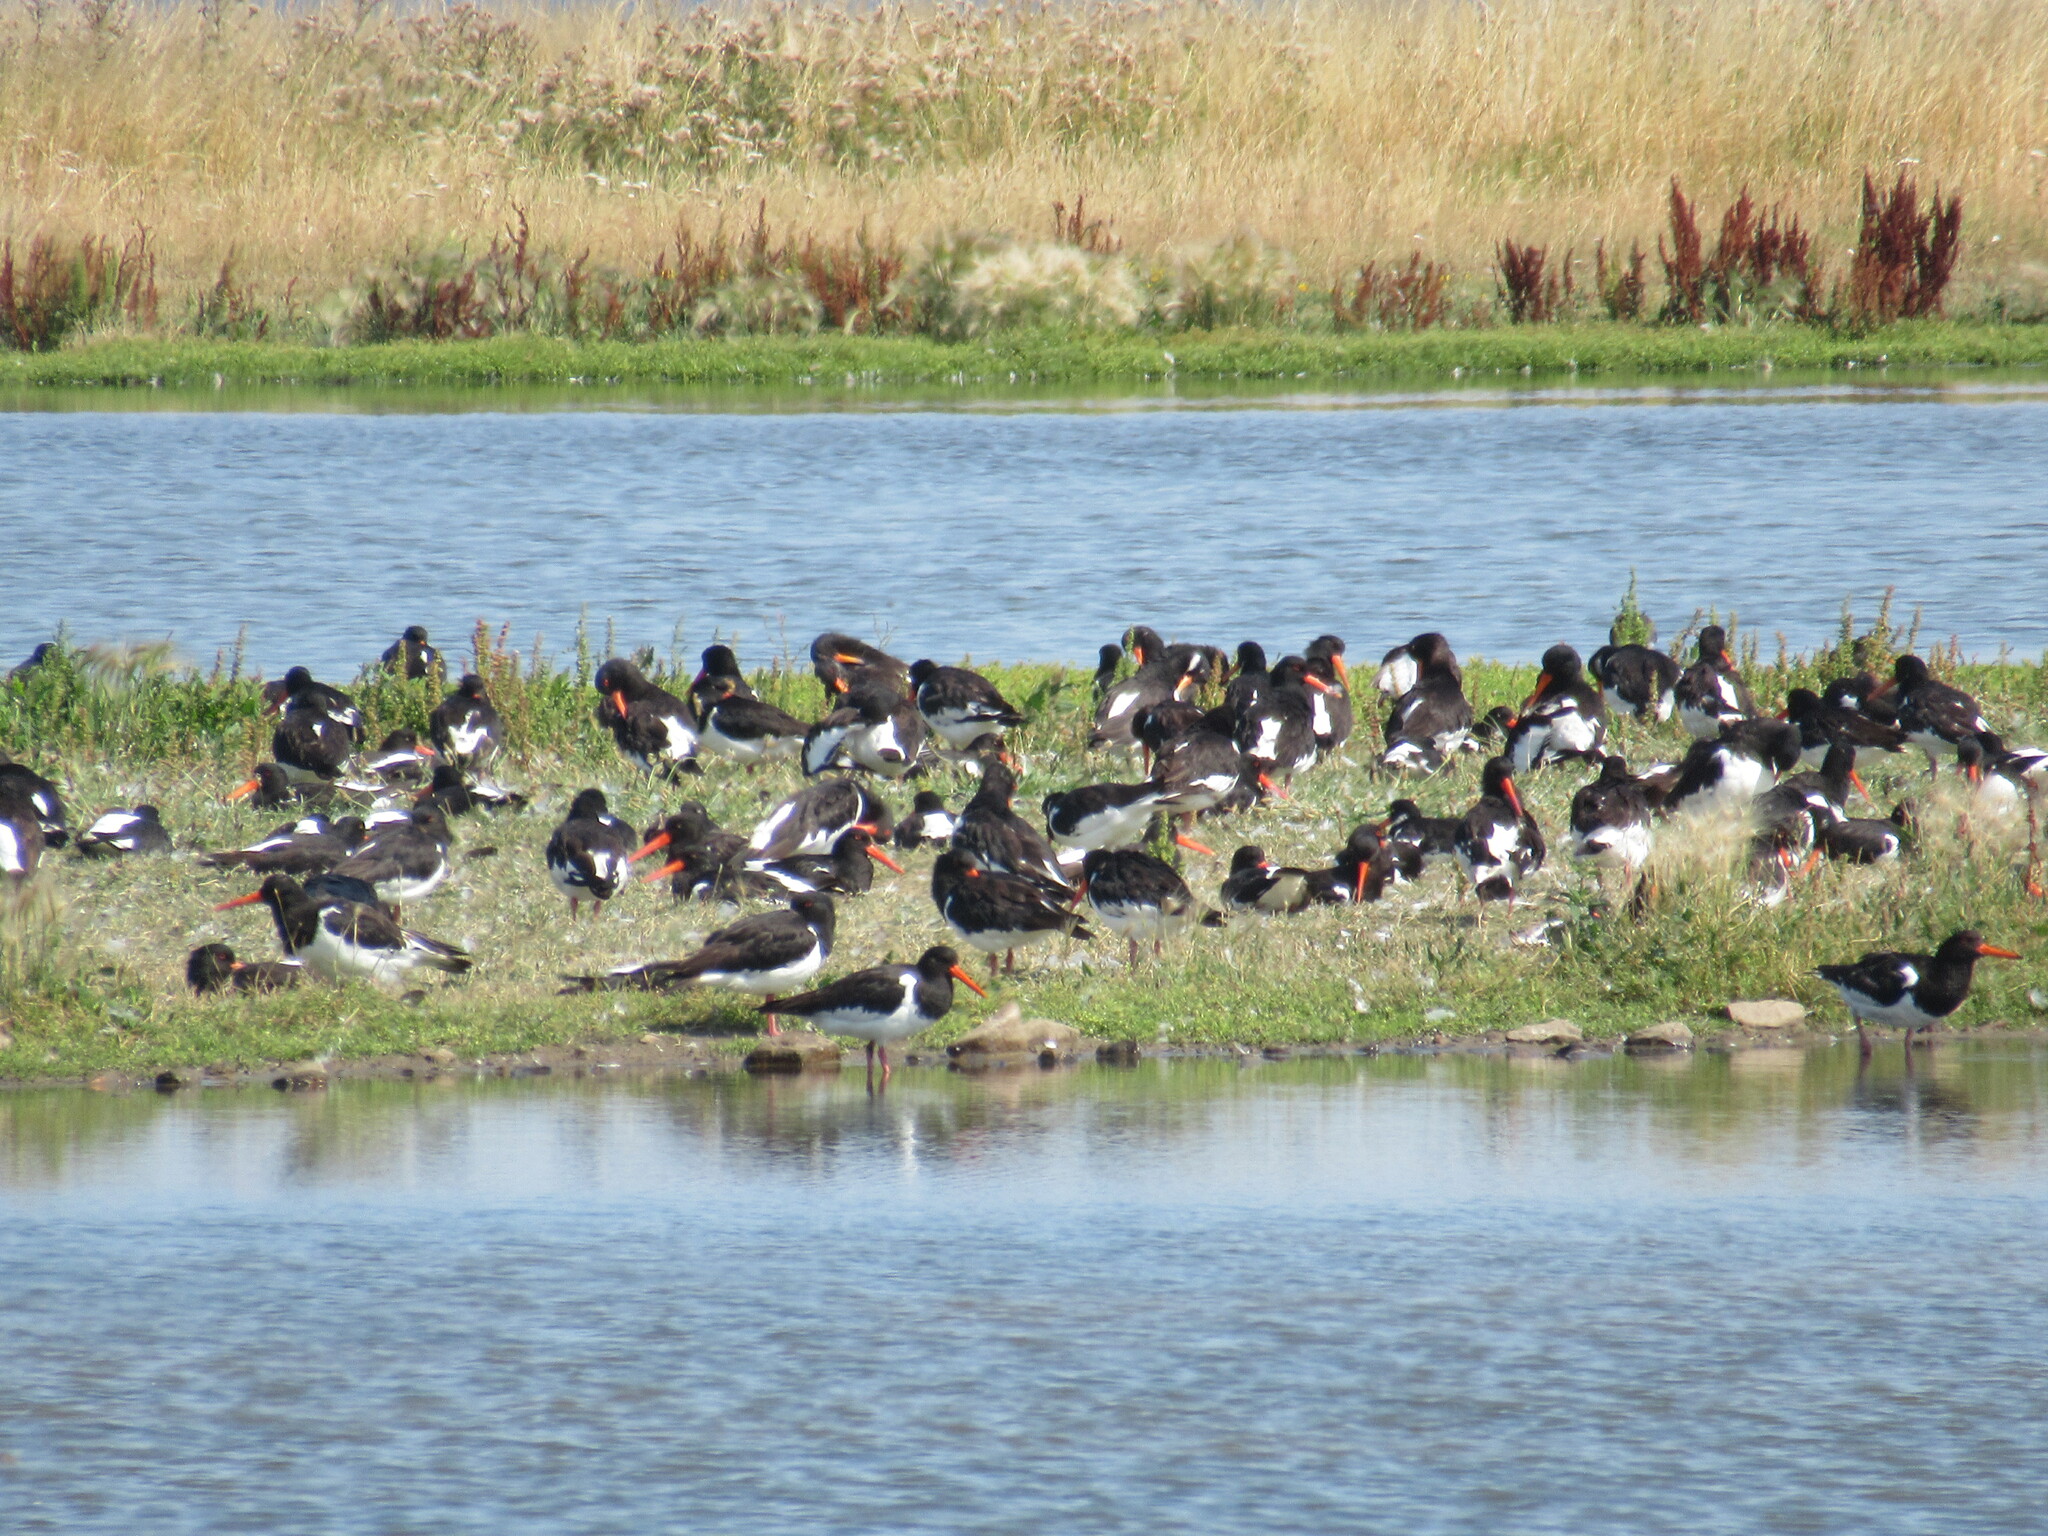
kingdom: Animalia
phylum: Chordata
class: Aves
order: Charadriiformes
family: Haematopodidae
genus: Haematopus
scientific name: Haematopus ostralegus
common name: Eurasian oystercatcher
